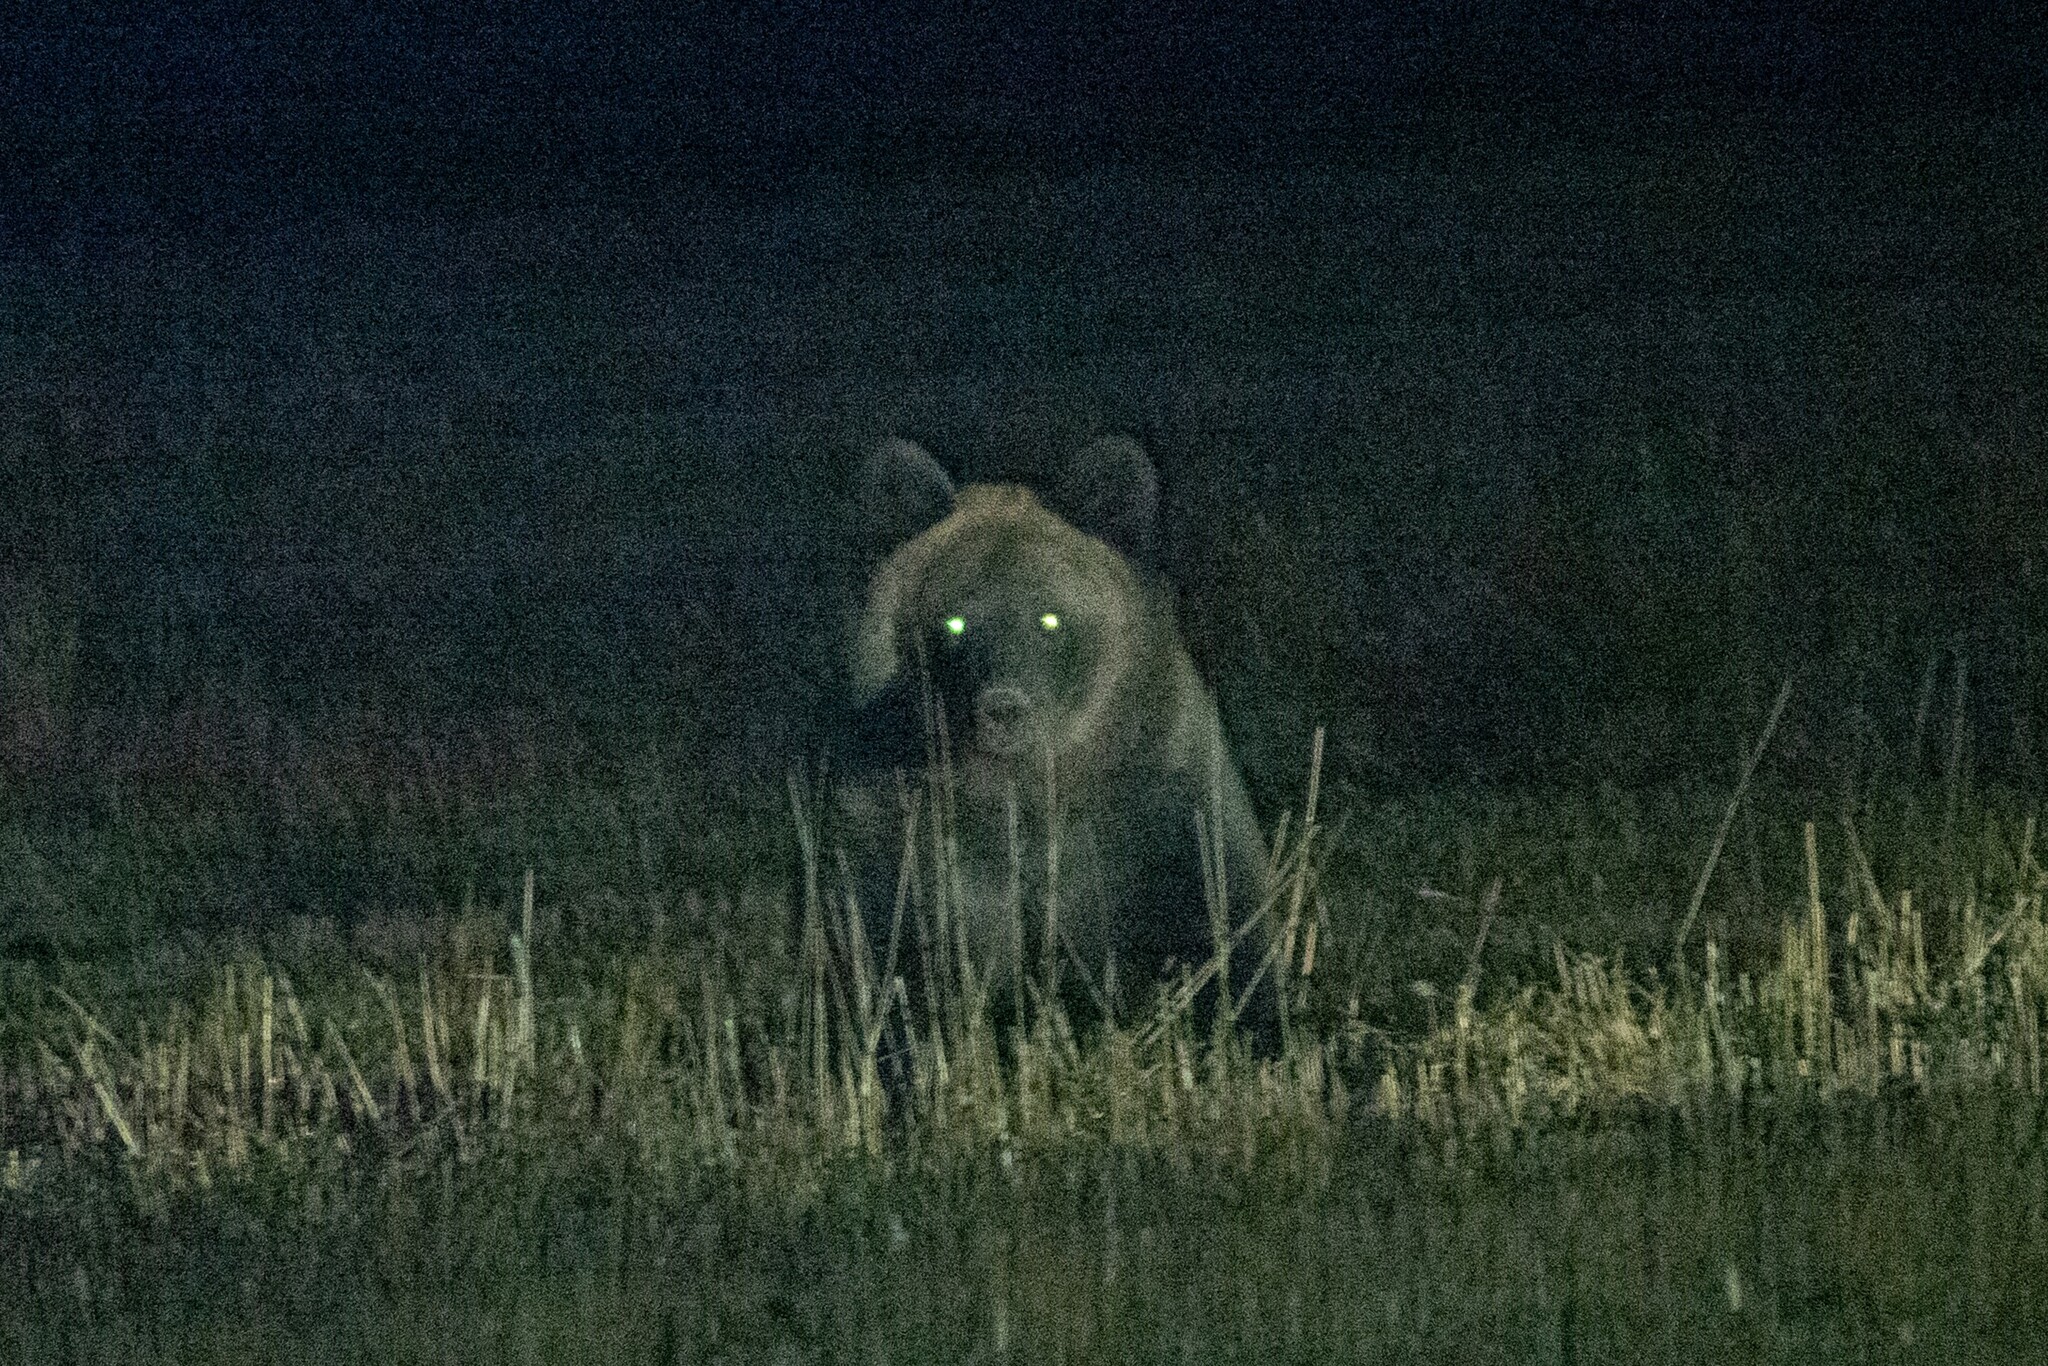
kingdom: Animalia
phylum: Chordata
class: Mammalia
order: Carnivora
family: Ursidae
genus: Ursus
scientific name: Ursus arctos
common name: Brown bear
